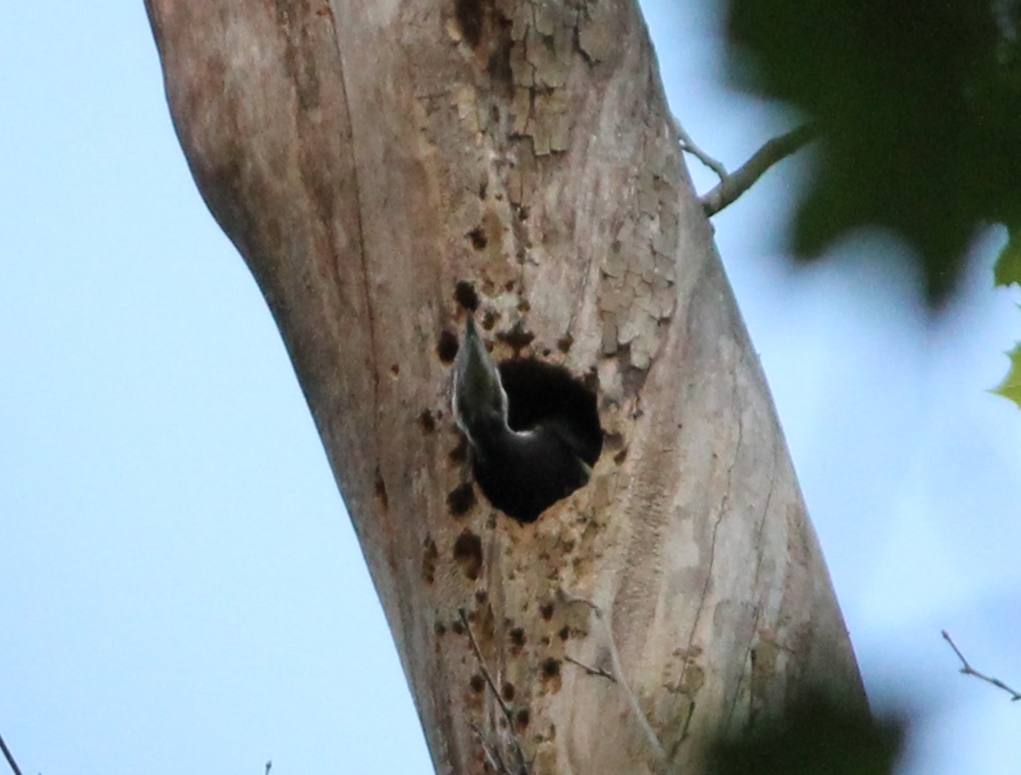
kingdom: Animalia
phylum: Chordata
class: Aves
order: Piciformes
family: Picidae
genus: Dryocopus
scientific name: Dryocopus pileatus
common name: Pileated woodpecker
